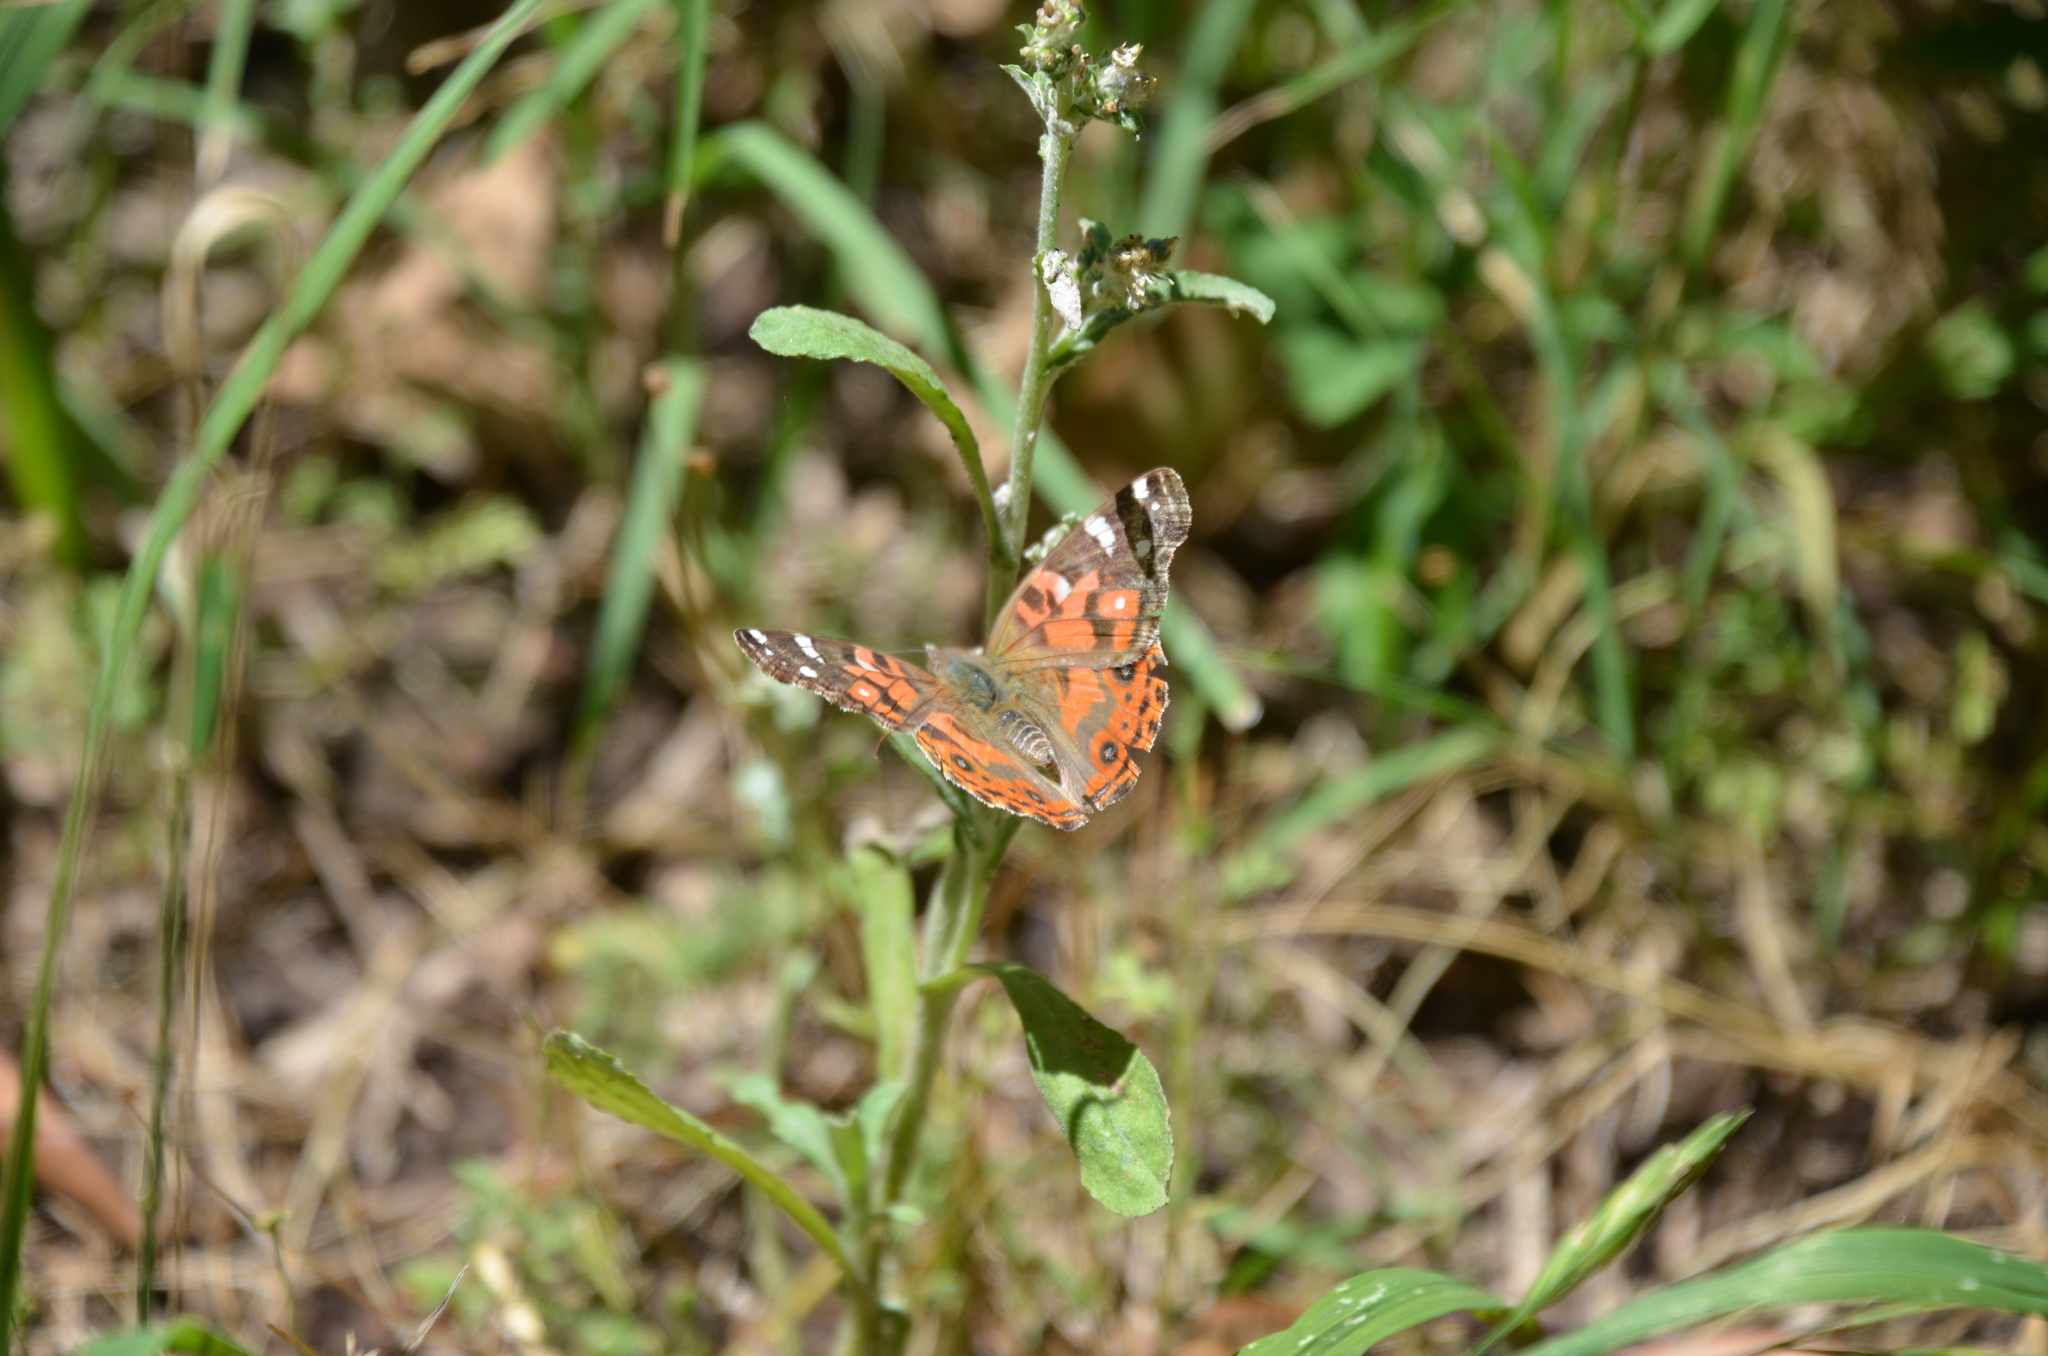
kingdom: Animalia
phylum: Arthropoda
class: Insecta
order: Lepidoptera
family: Nymphalidae
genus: Vanessa
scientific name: Vanessa braziliensis
